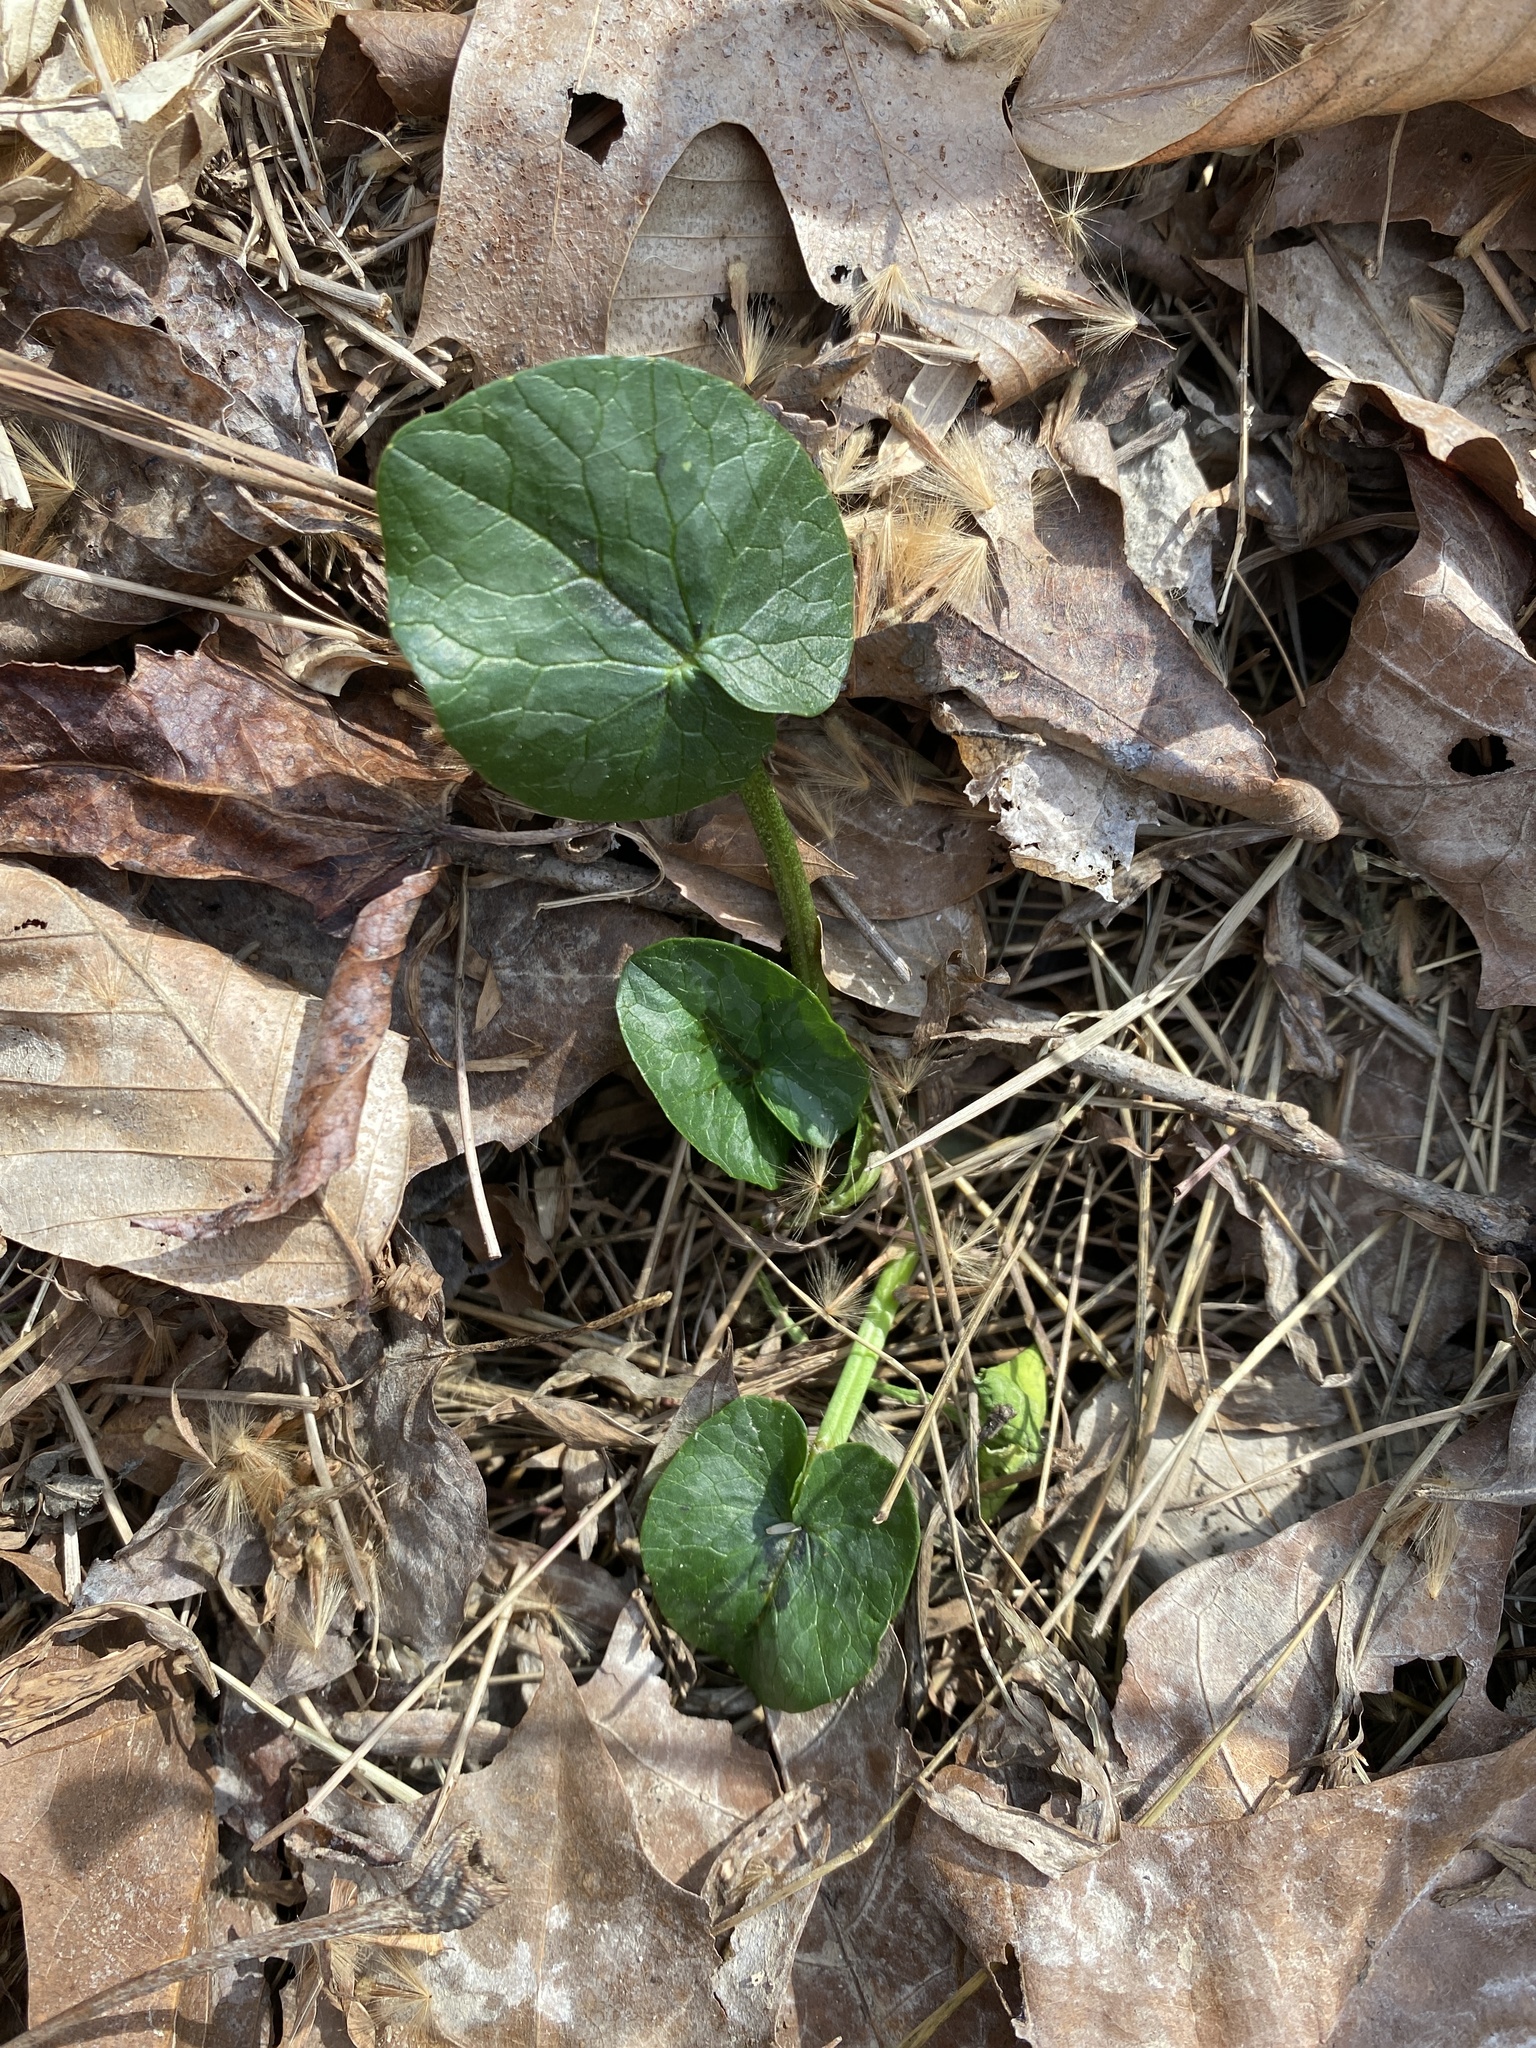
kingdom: Plantae
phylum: Tracheophyta
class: Magnoliopsida
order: Ranunculales
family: Ranunculaceae
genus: Ficaria
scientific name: Ficaria verna
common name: Lesser celandine
